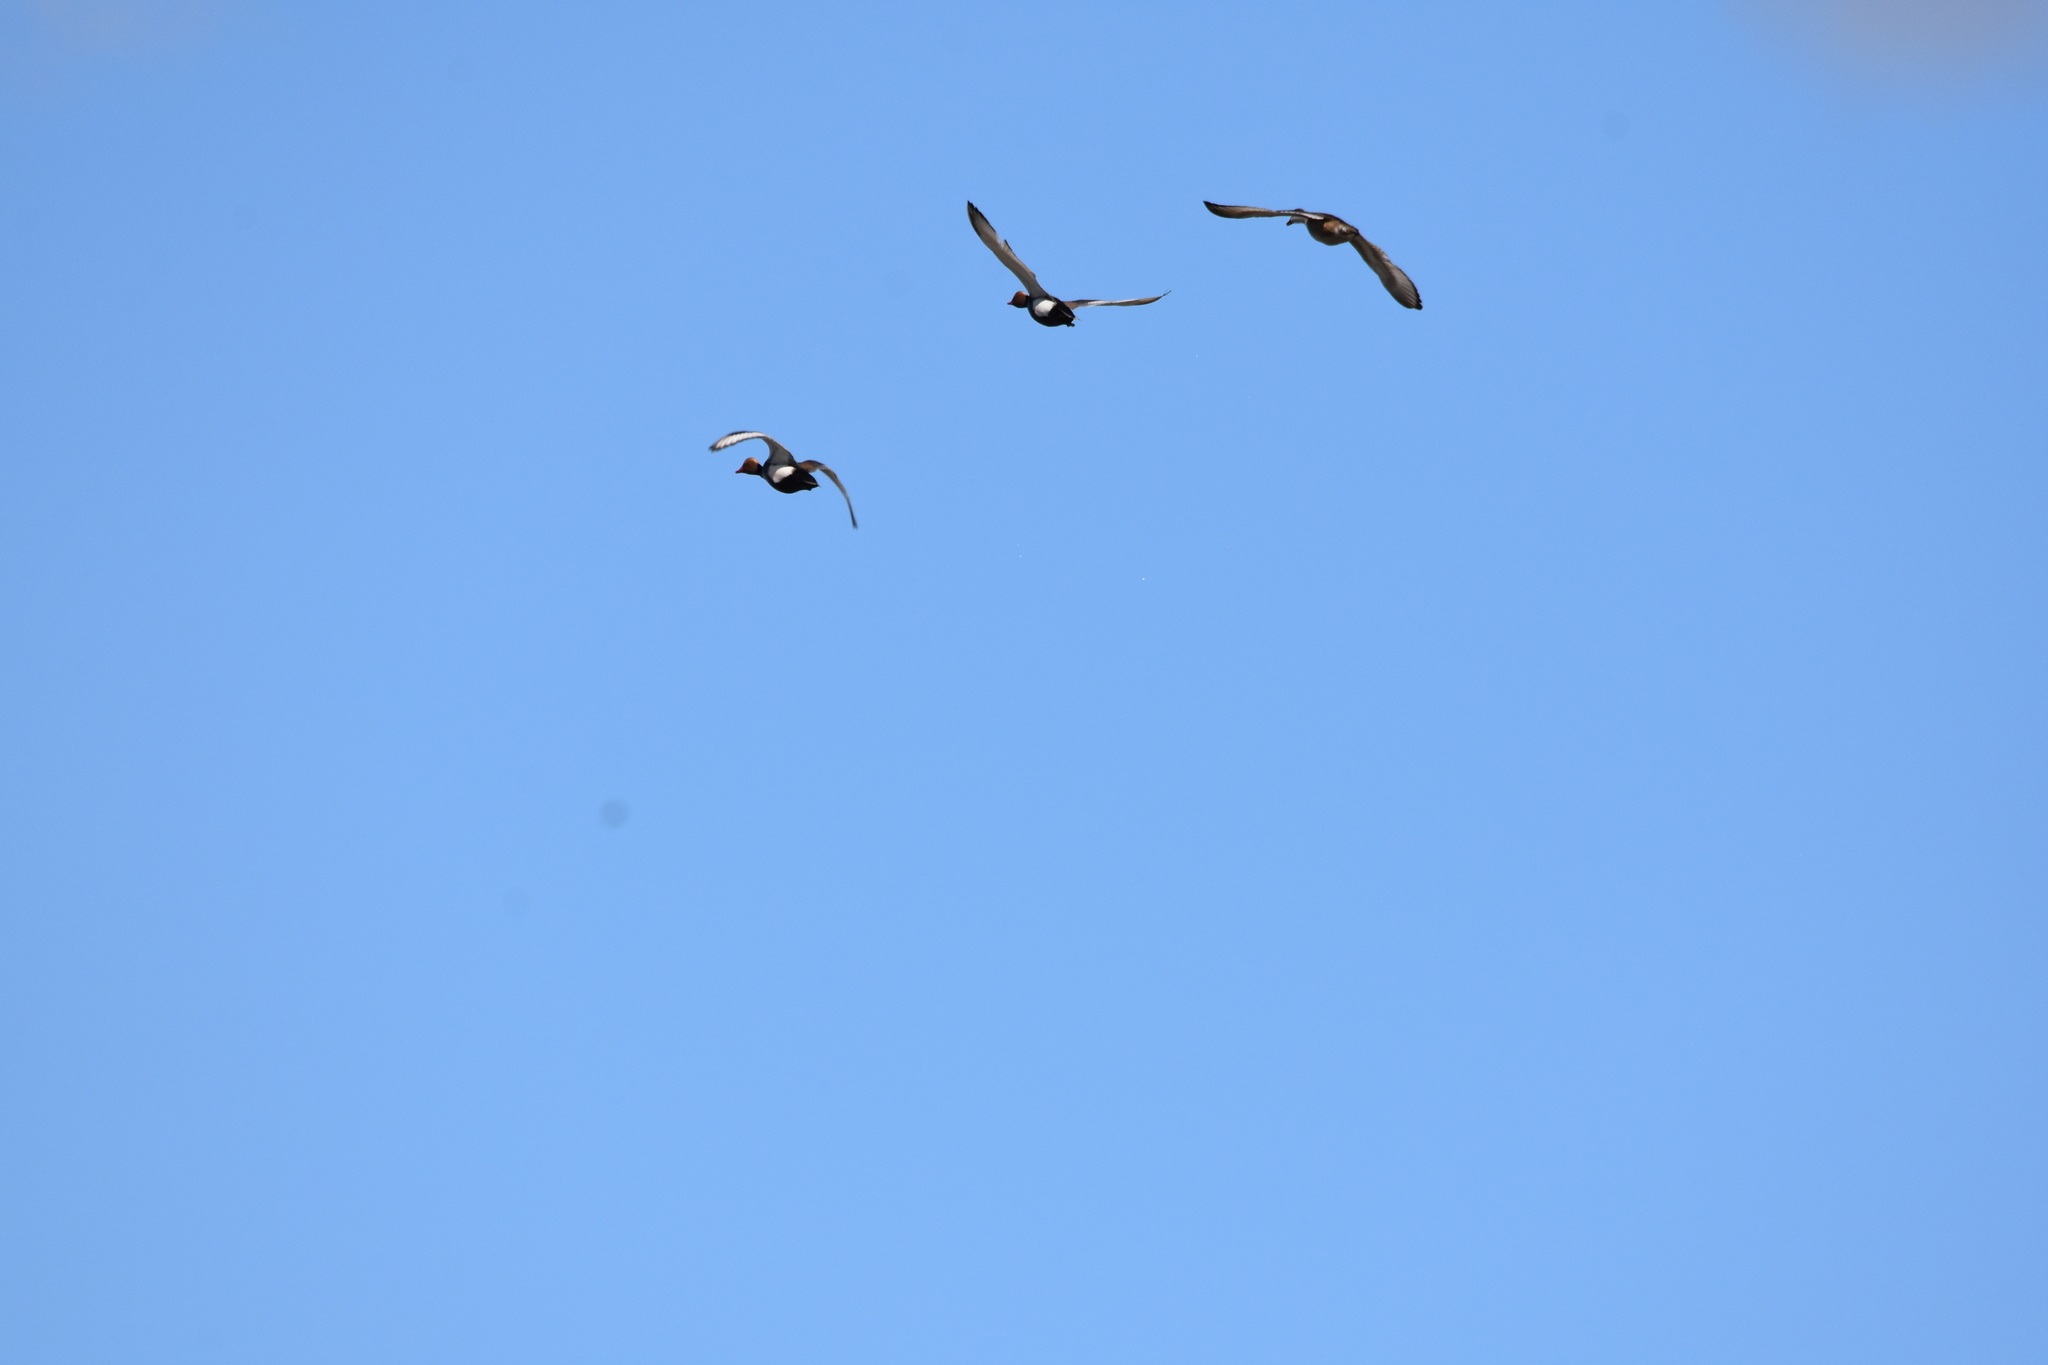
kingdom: Animalia
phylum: Chordata
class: Aves
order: Anseriformes
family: Anatidae
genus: Netta
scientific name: Netta rufina
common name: Red-crested pochard
